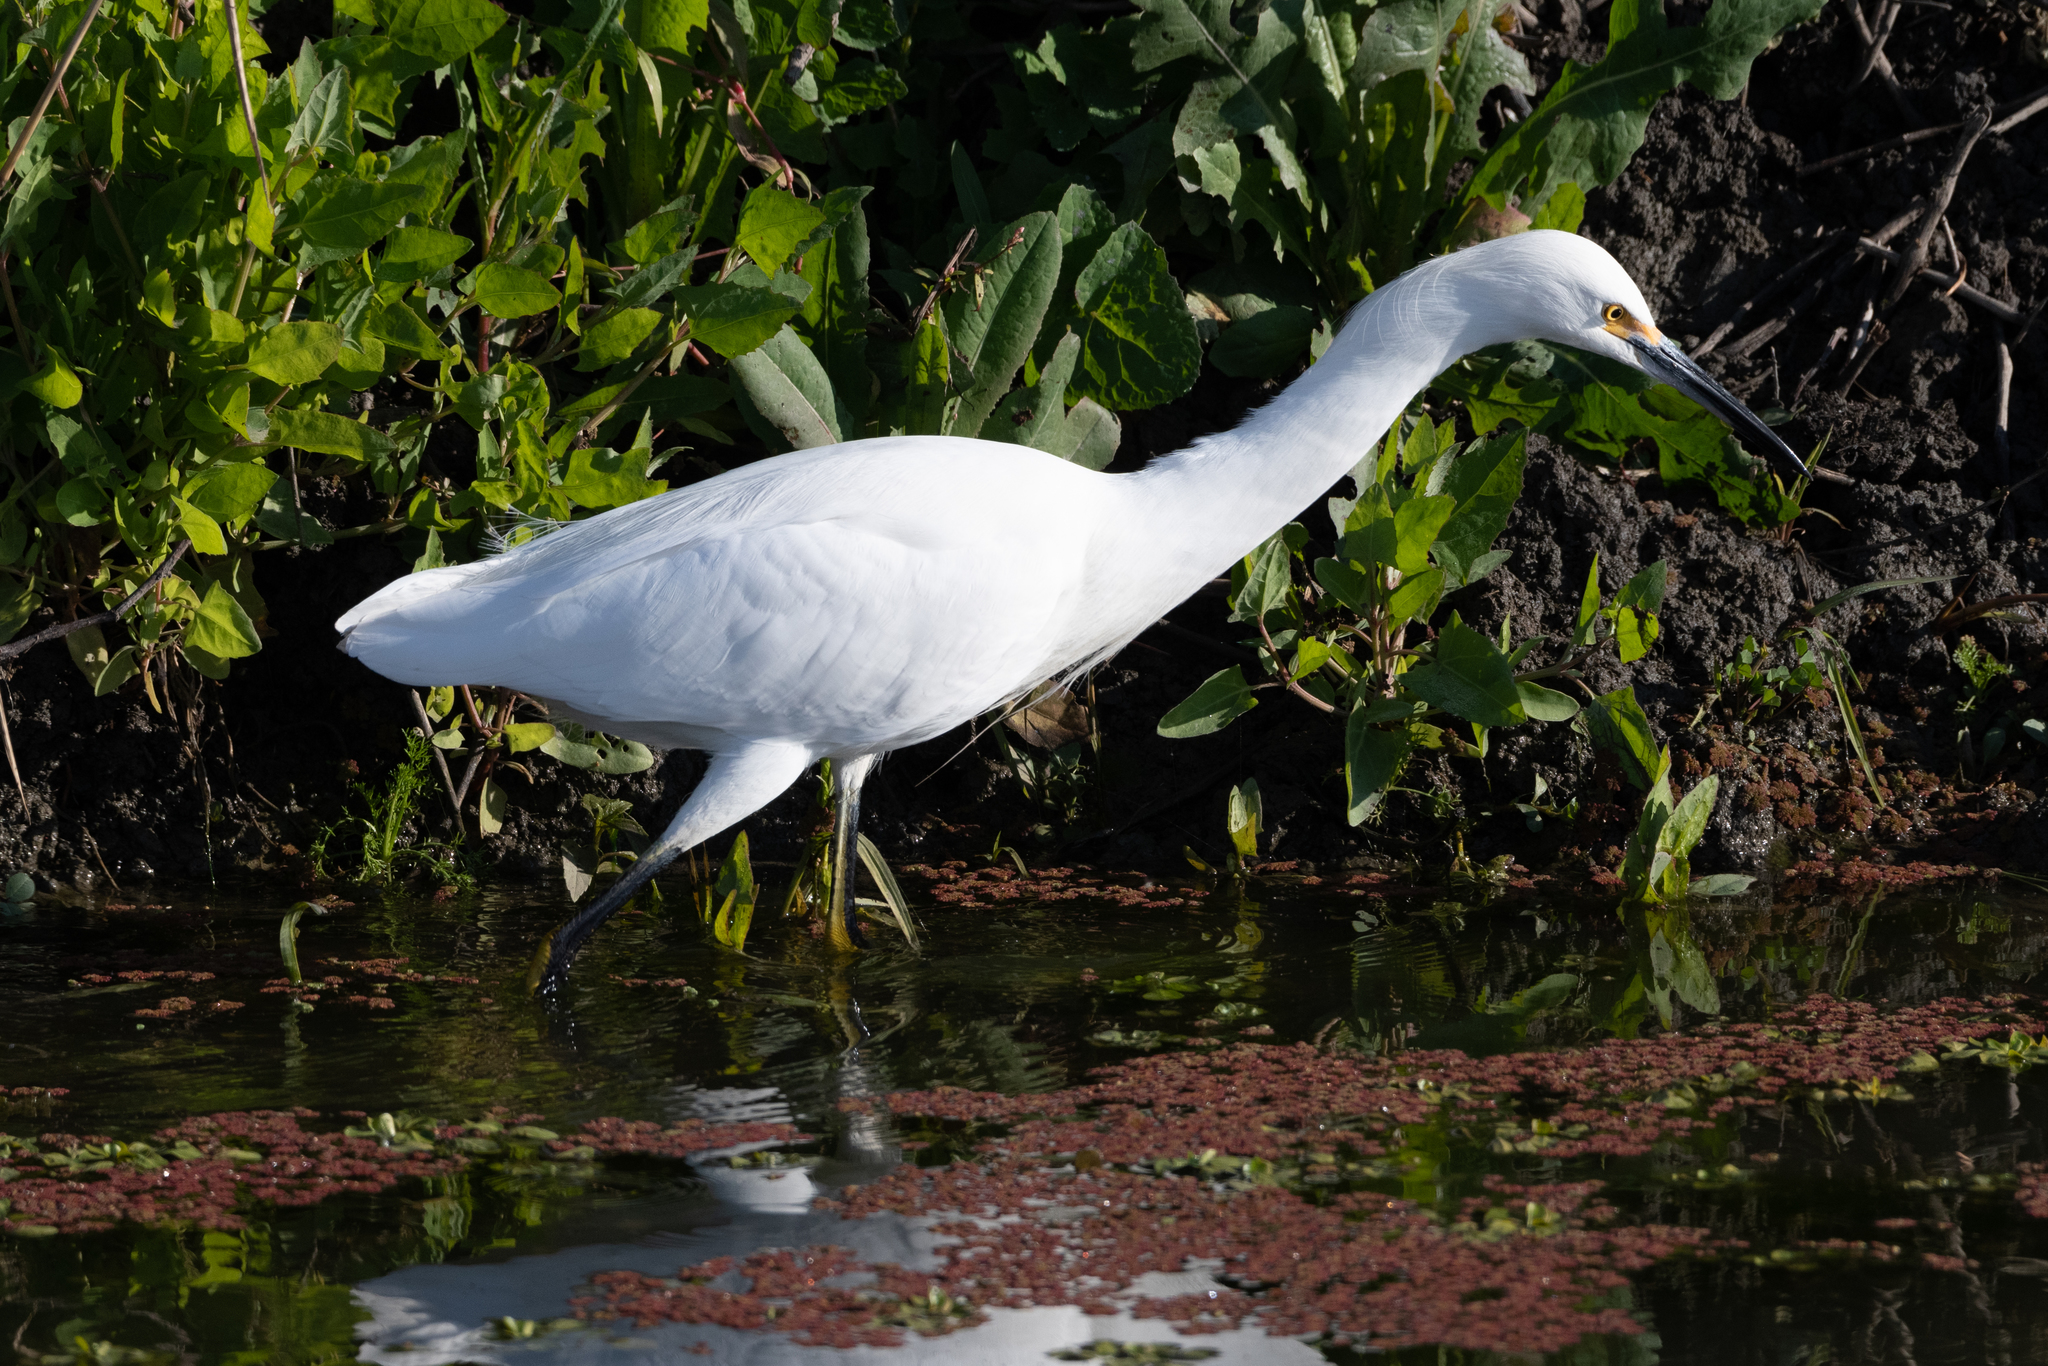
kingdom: Animalia
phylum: Chordata
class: Aves
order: Pelecaniformes
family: Ardeidae
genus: Egretta
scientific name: Egretta thula
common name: Snowy egret
